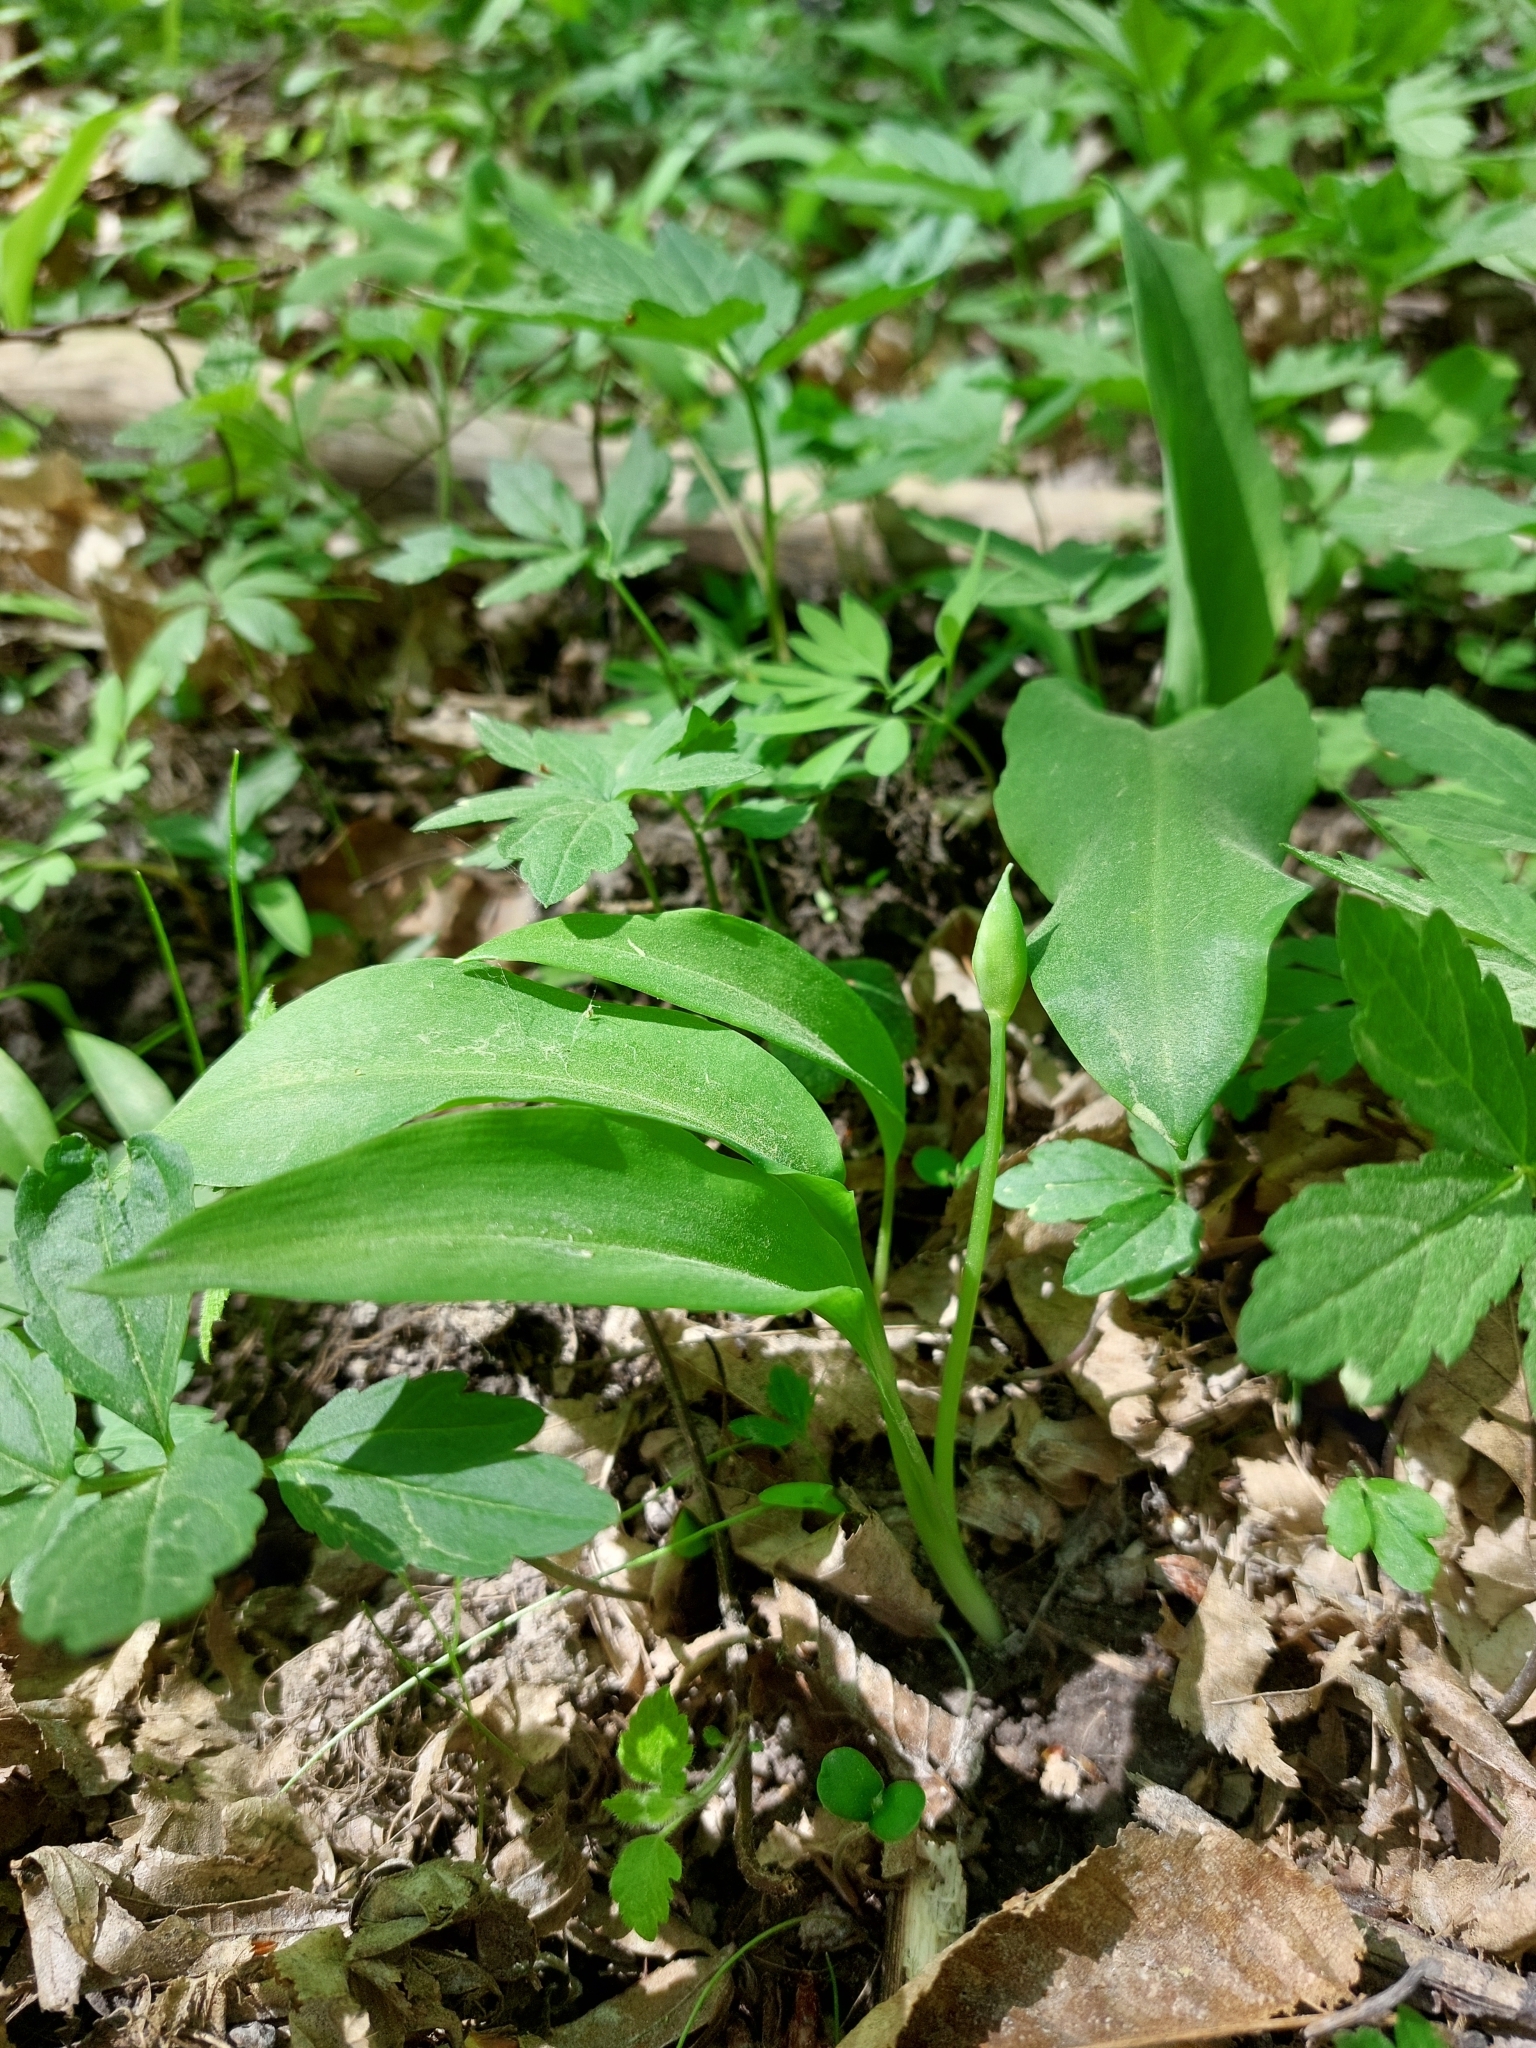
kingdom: Plantae
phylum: Tracheophyta
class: Liliopsida
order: Asparagales
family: Amaryllidaceae
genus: Allium
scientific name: Allium ursinum
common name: Ramsons
